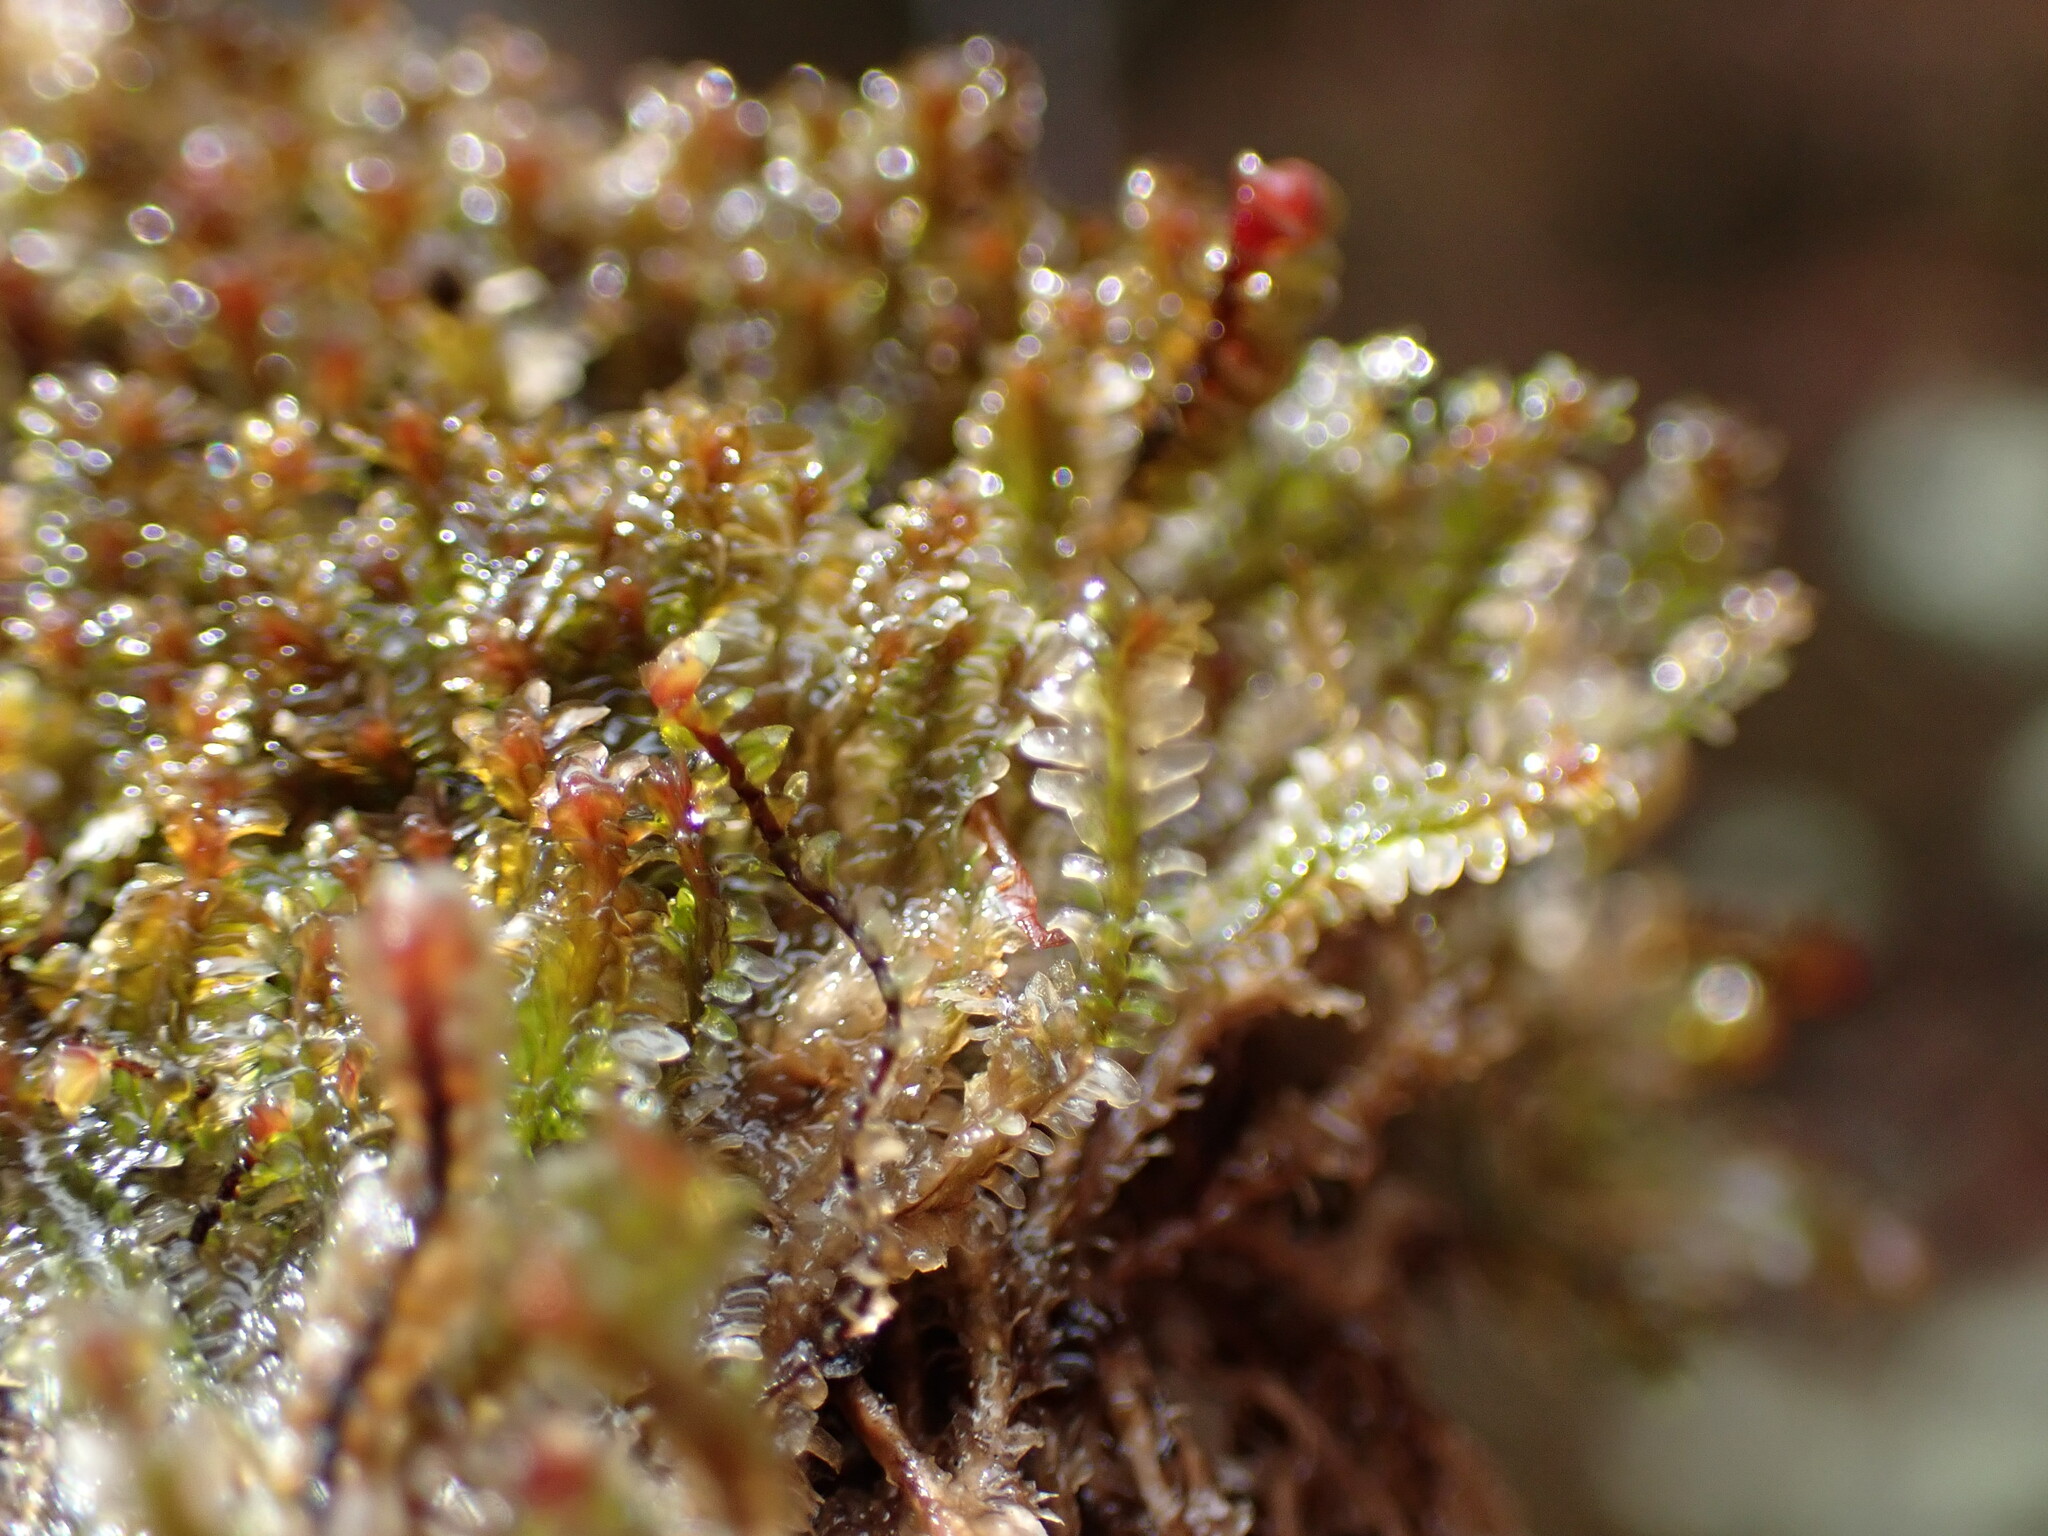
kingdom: Plantae
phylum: Marchantiophyta
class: Jungermanniopsida
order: Jungermanniales
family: Scapaniaceae
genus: Diplophyllum
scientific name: Diplophyllum albicans
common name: White earwort
